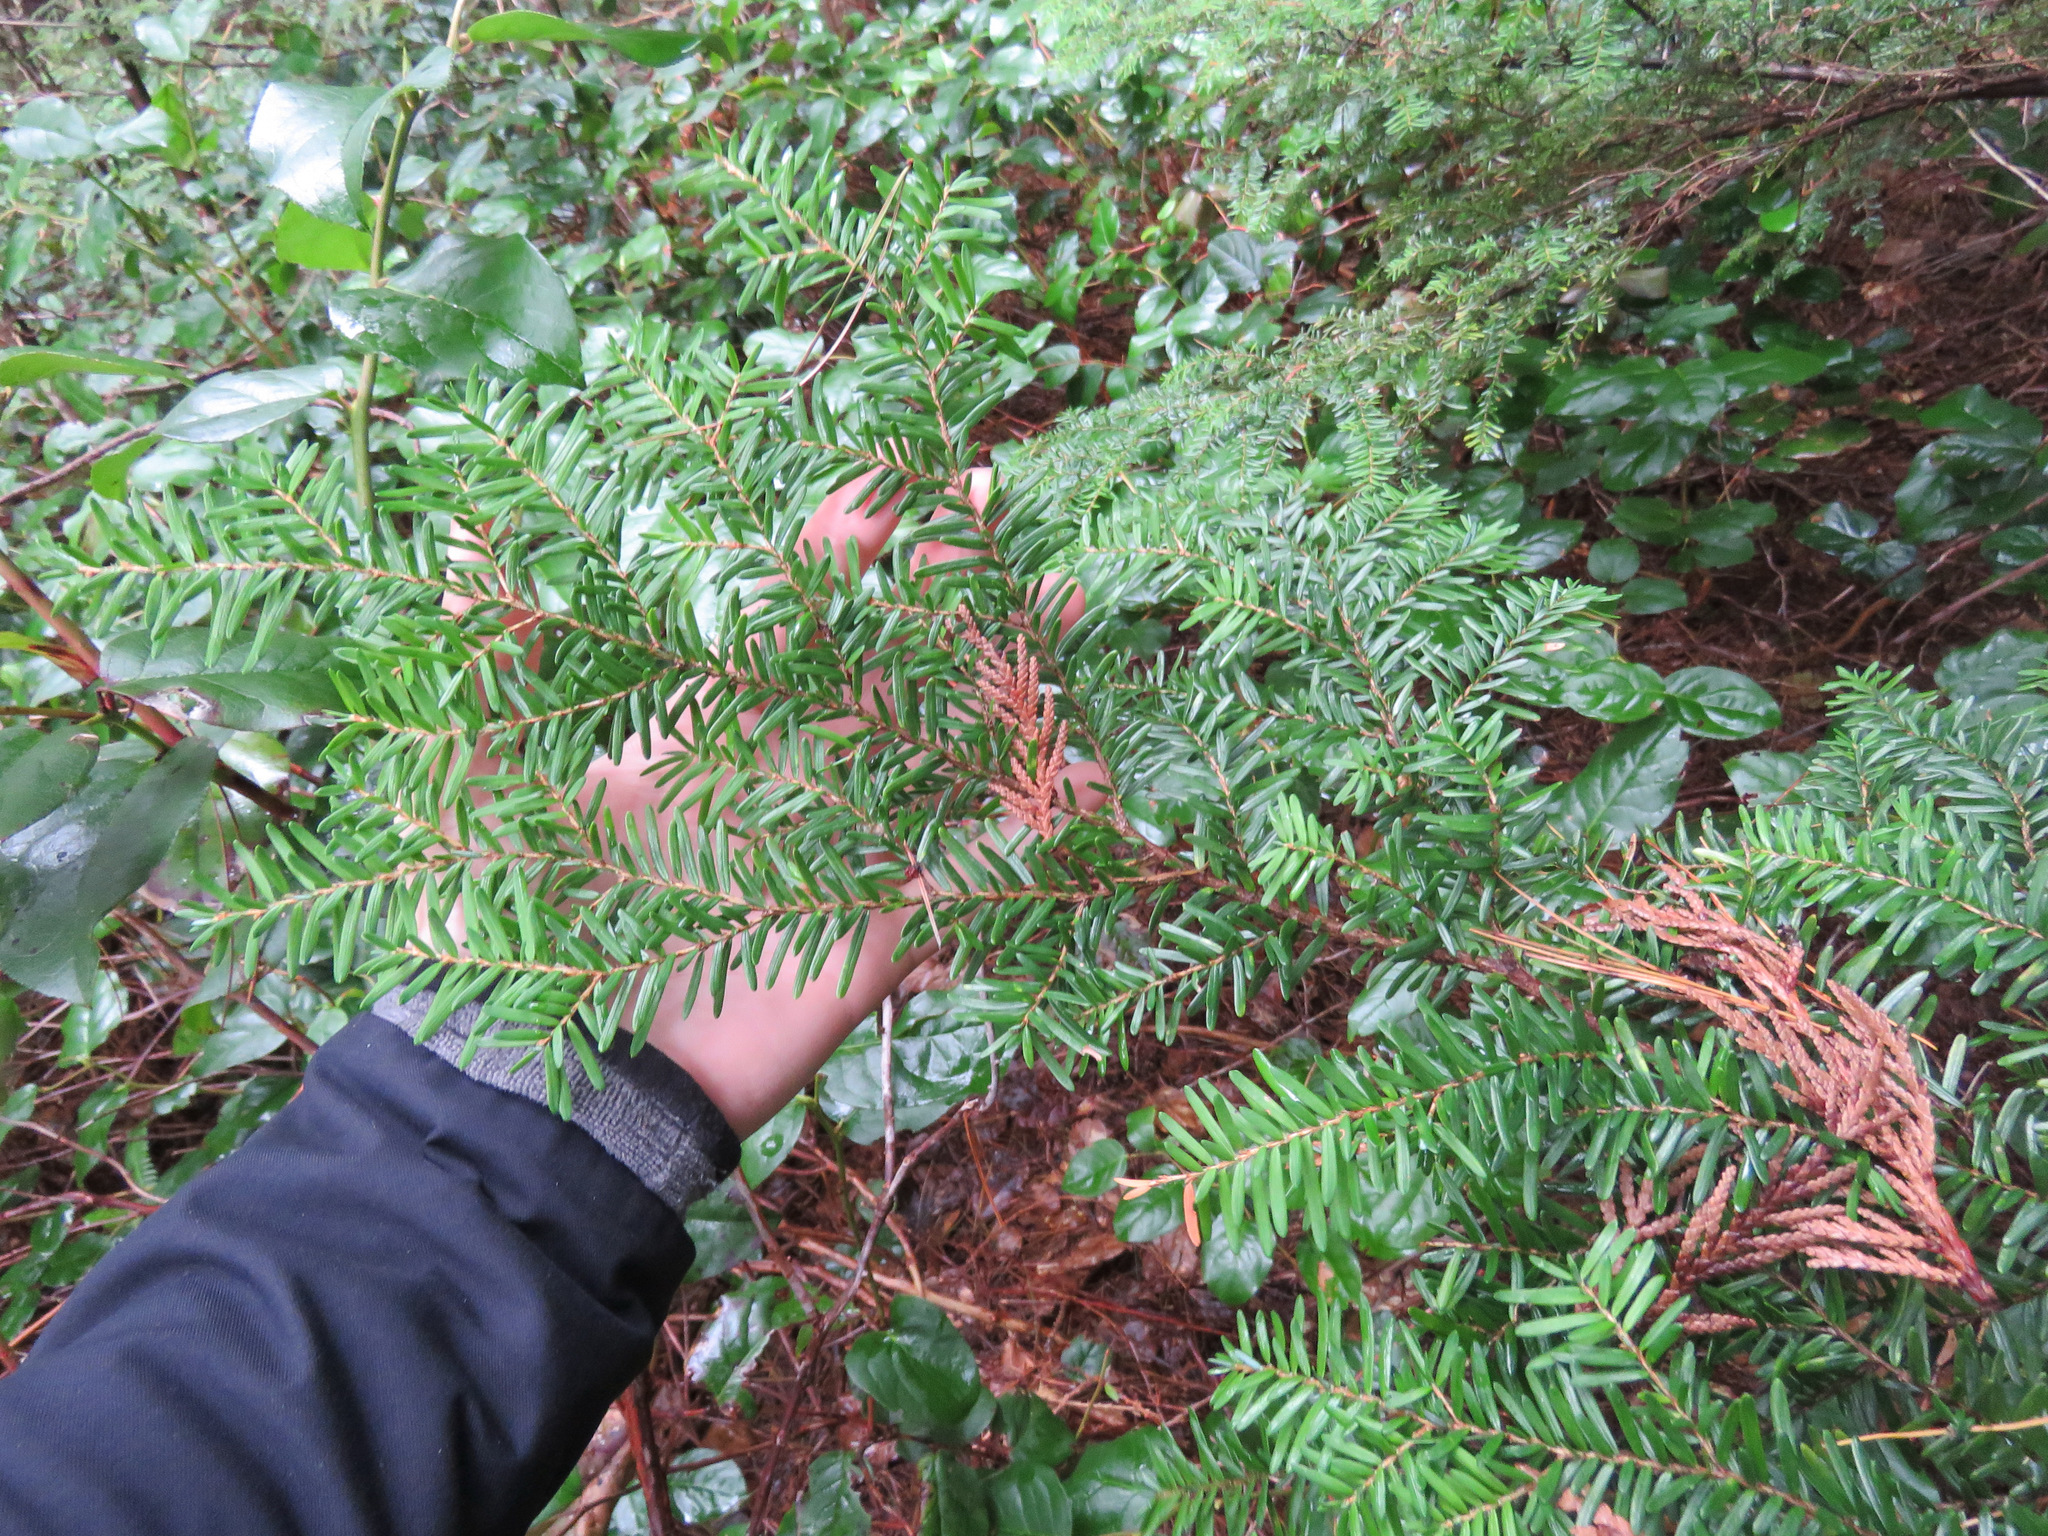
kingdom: Plantae
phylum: Tracheophyta
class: Pinopsida
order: Pinales
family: Pinaceae
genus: Tsuga
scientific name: Tsuga heterophylla
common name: Western hemlock
